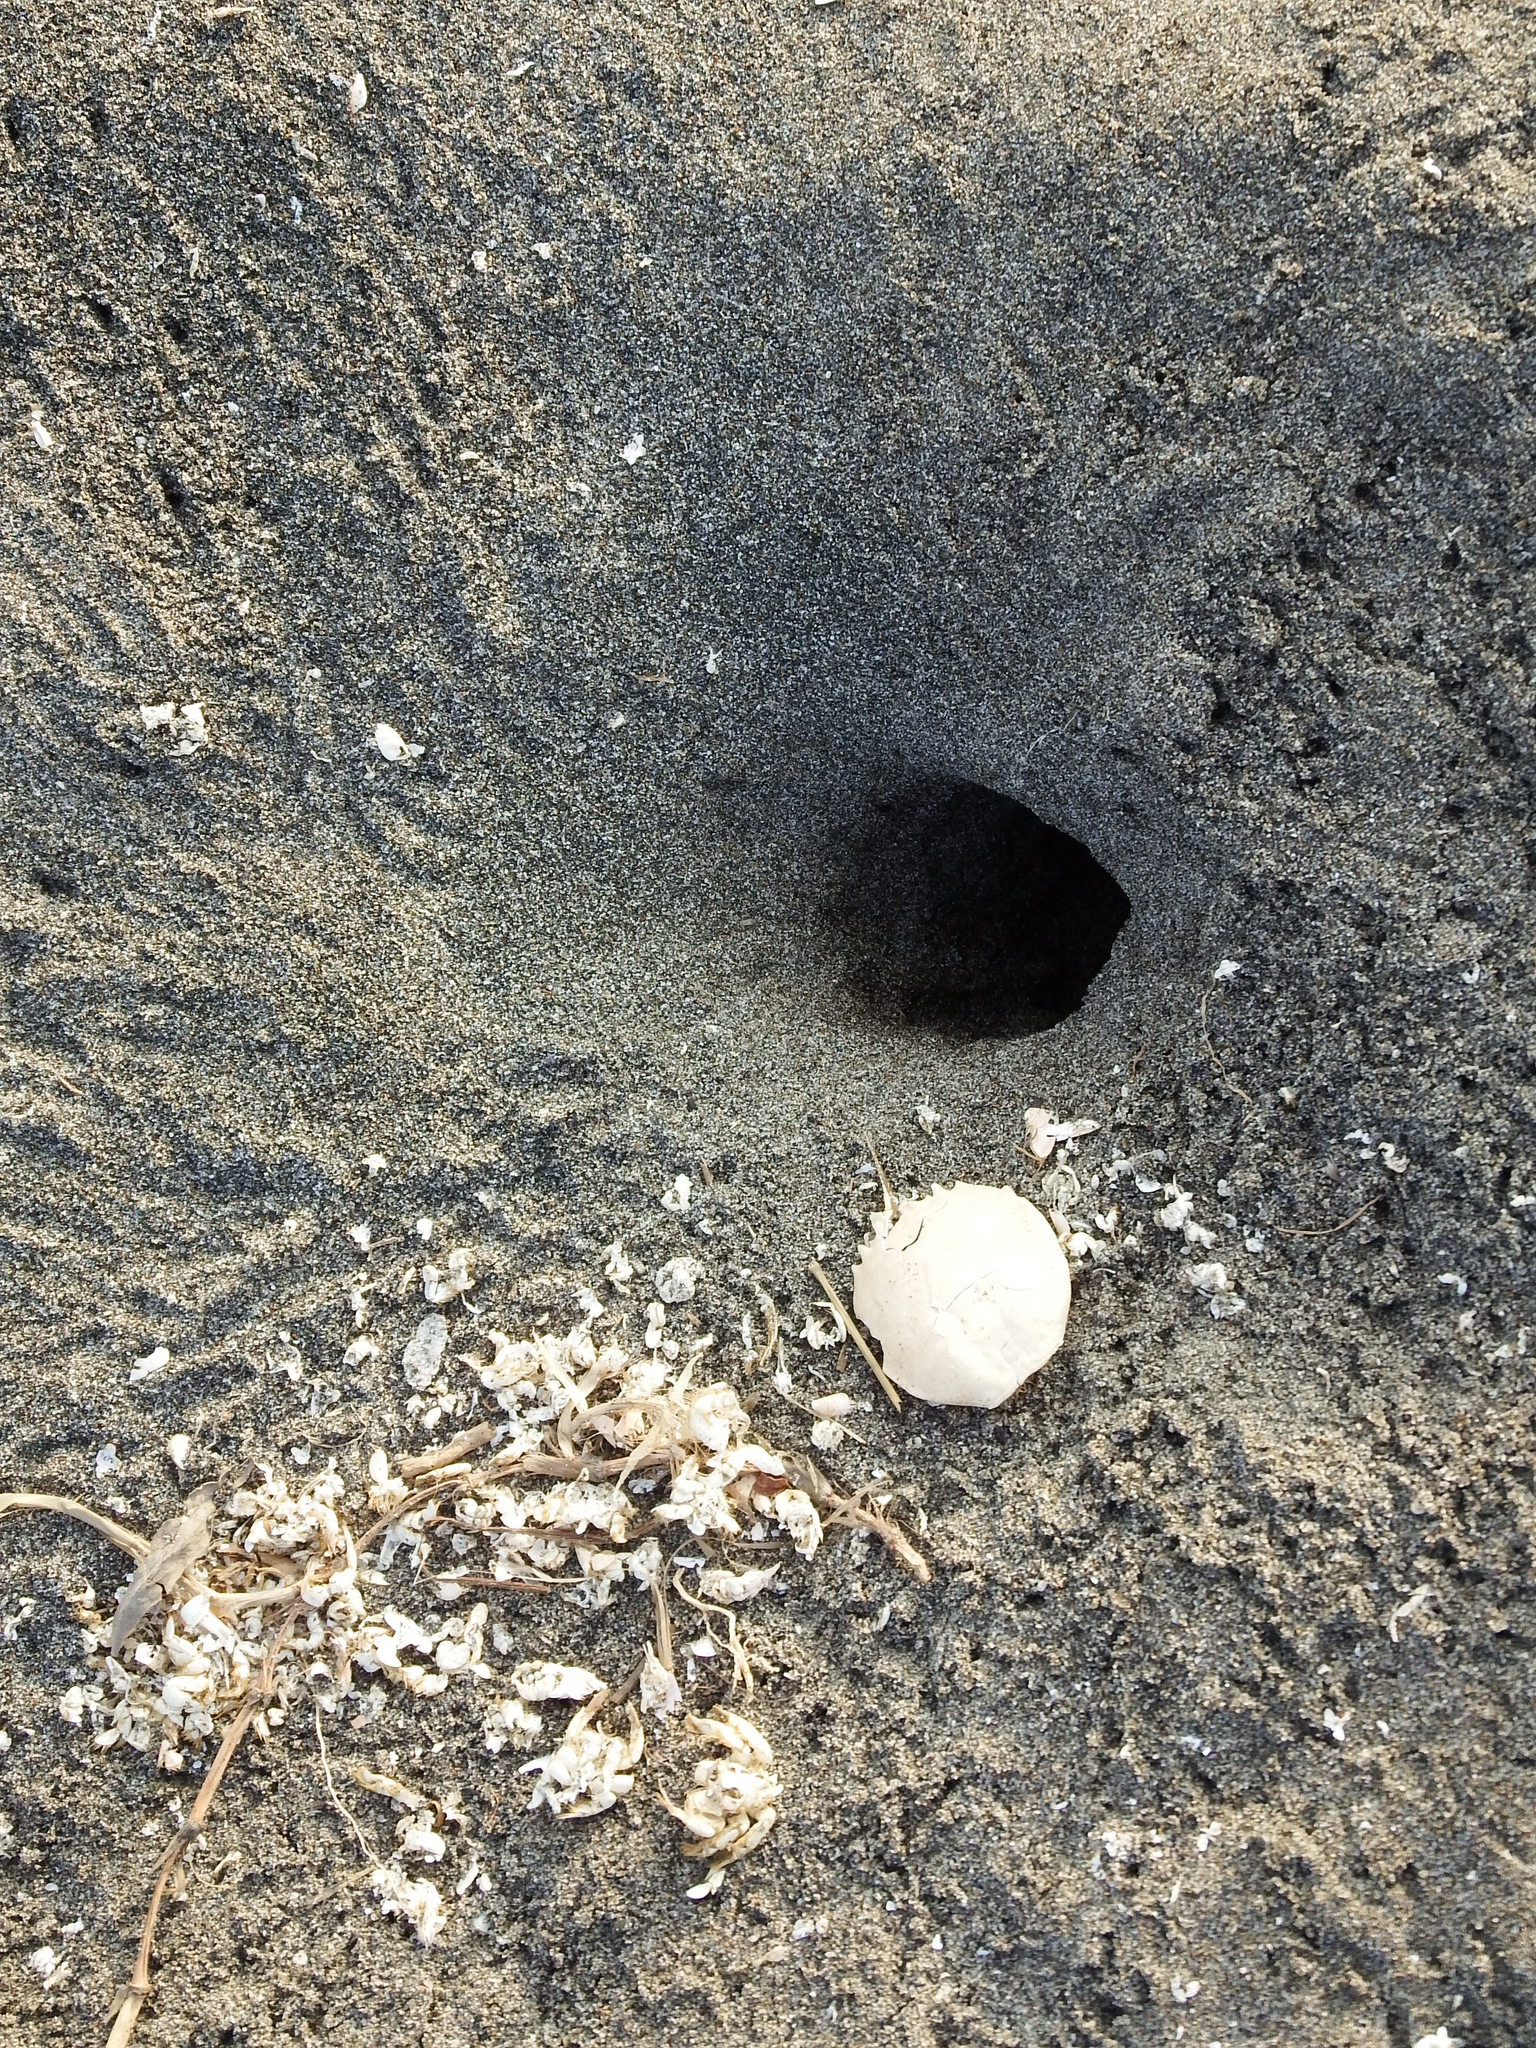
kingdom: Animalia
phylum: Arthropoda
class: Malacostraca
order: Decapoda
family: Ocypodidae
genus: Ocypode
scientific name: Ocypode gaudichaudii
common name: Pacific ghost crab
